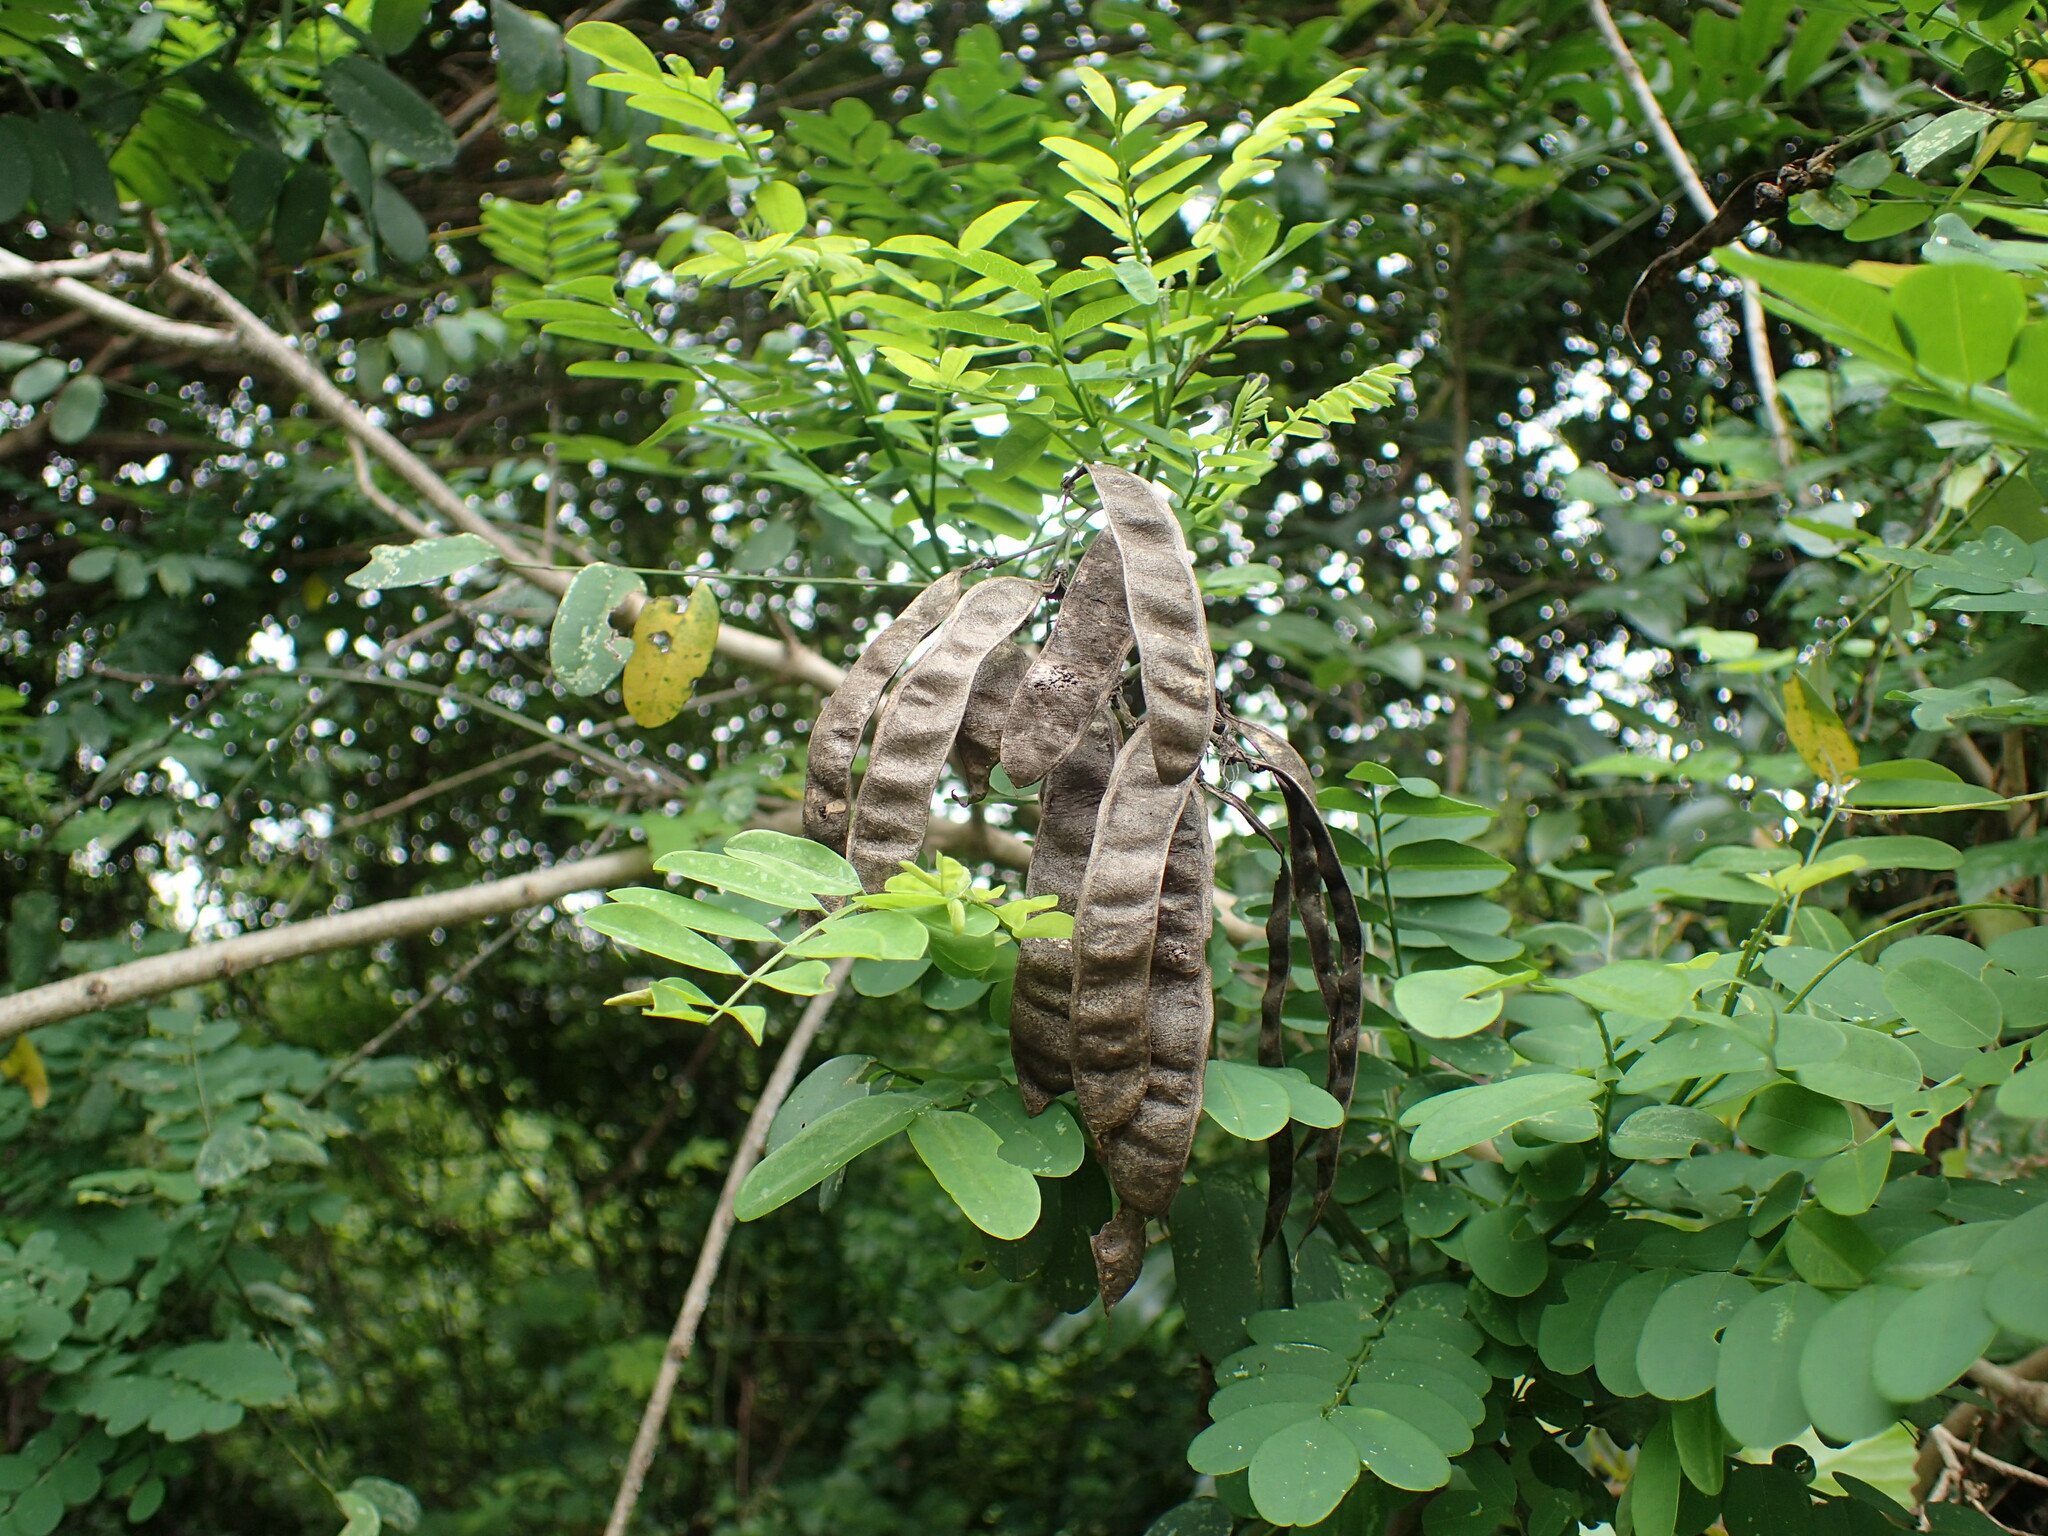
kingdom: Plantae
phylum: Tracheophyta
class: Magnoliopsida
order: Fabales
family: Fabaceae
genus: Calpurnia
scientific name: Calpurnia aurea
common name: Wild laburnum
